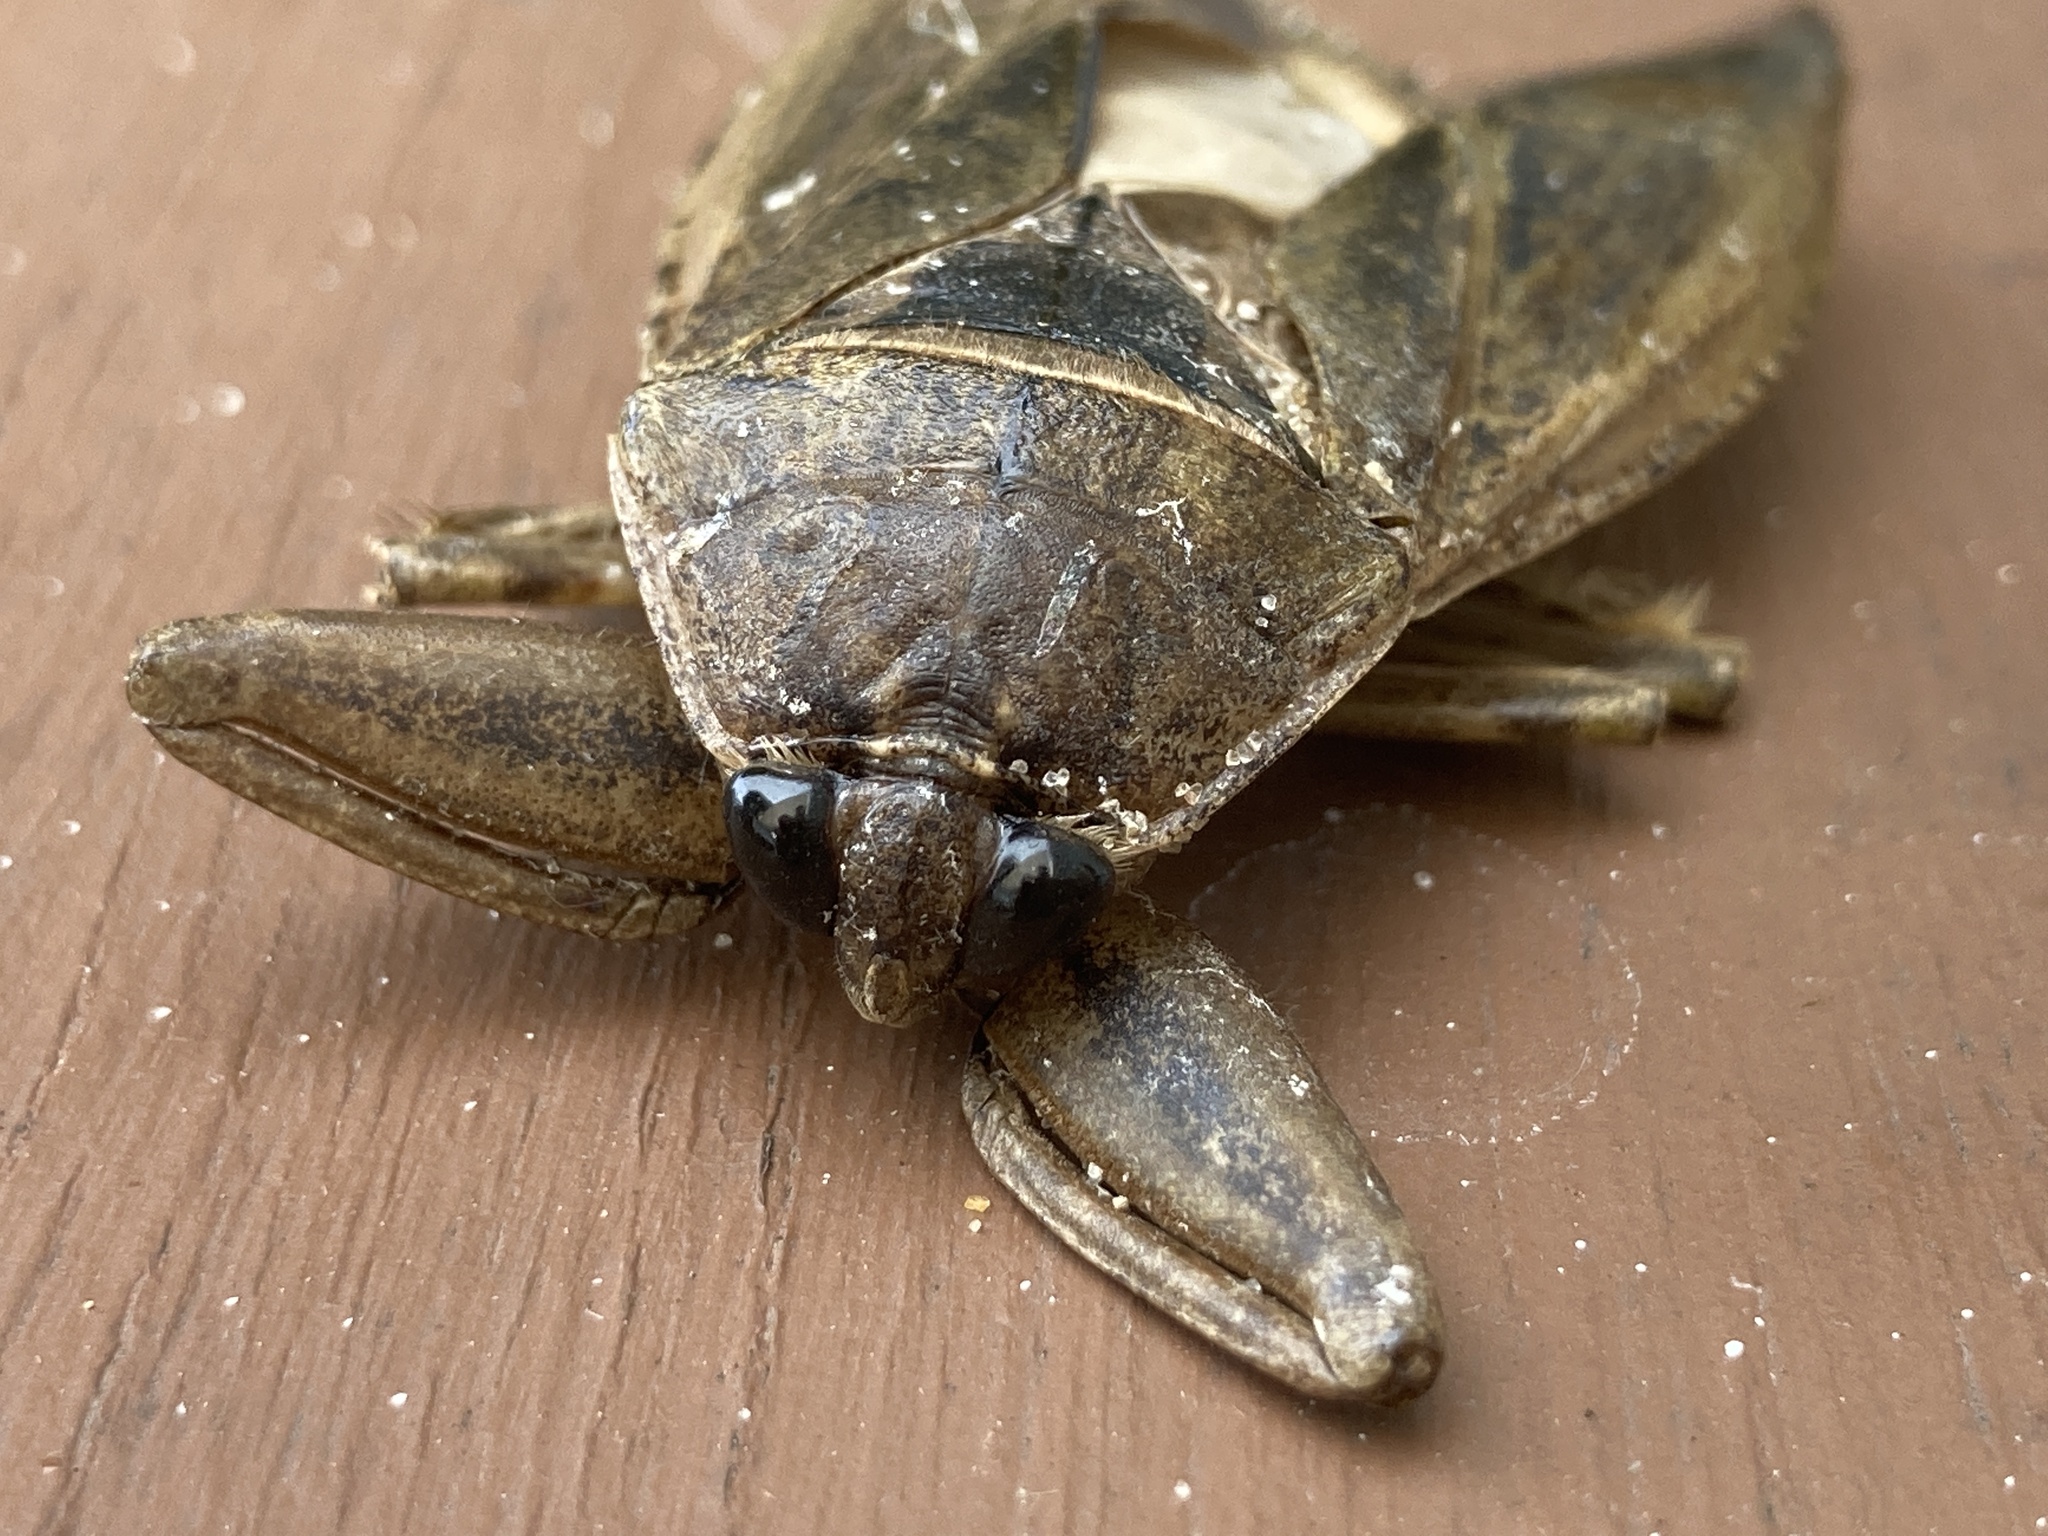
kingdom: Animalia
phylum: Arthropoda
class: Insecta
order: Hemiptera
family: Belostomatidae
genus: Lethocerus
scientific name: Lethocerus americanus
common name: Giant water bug
